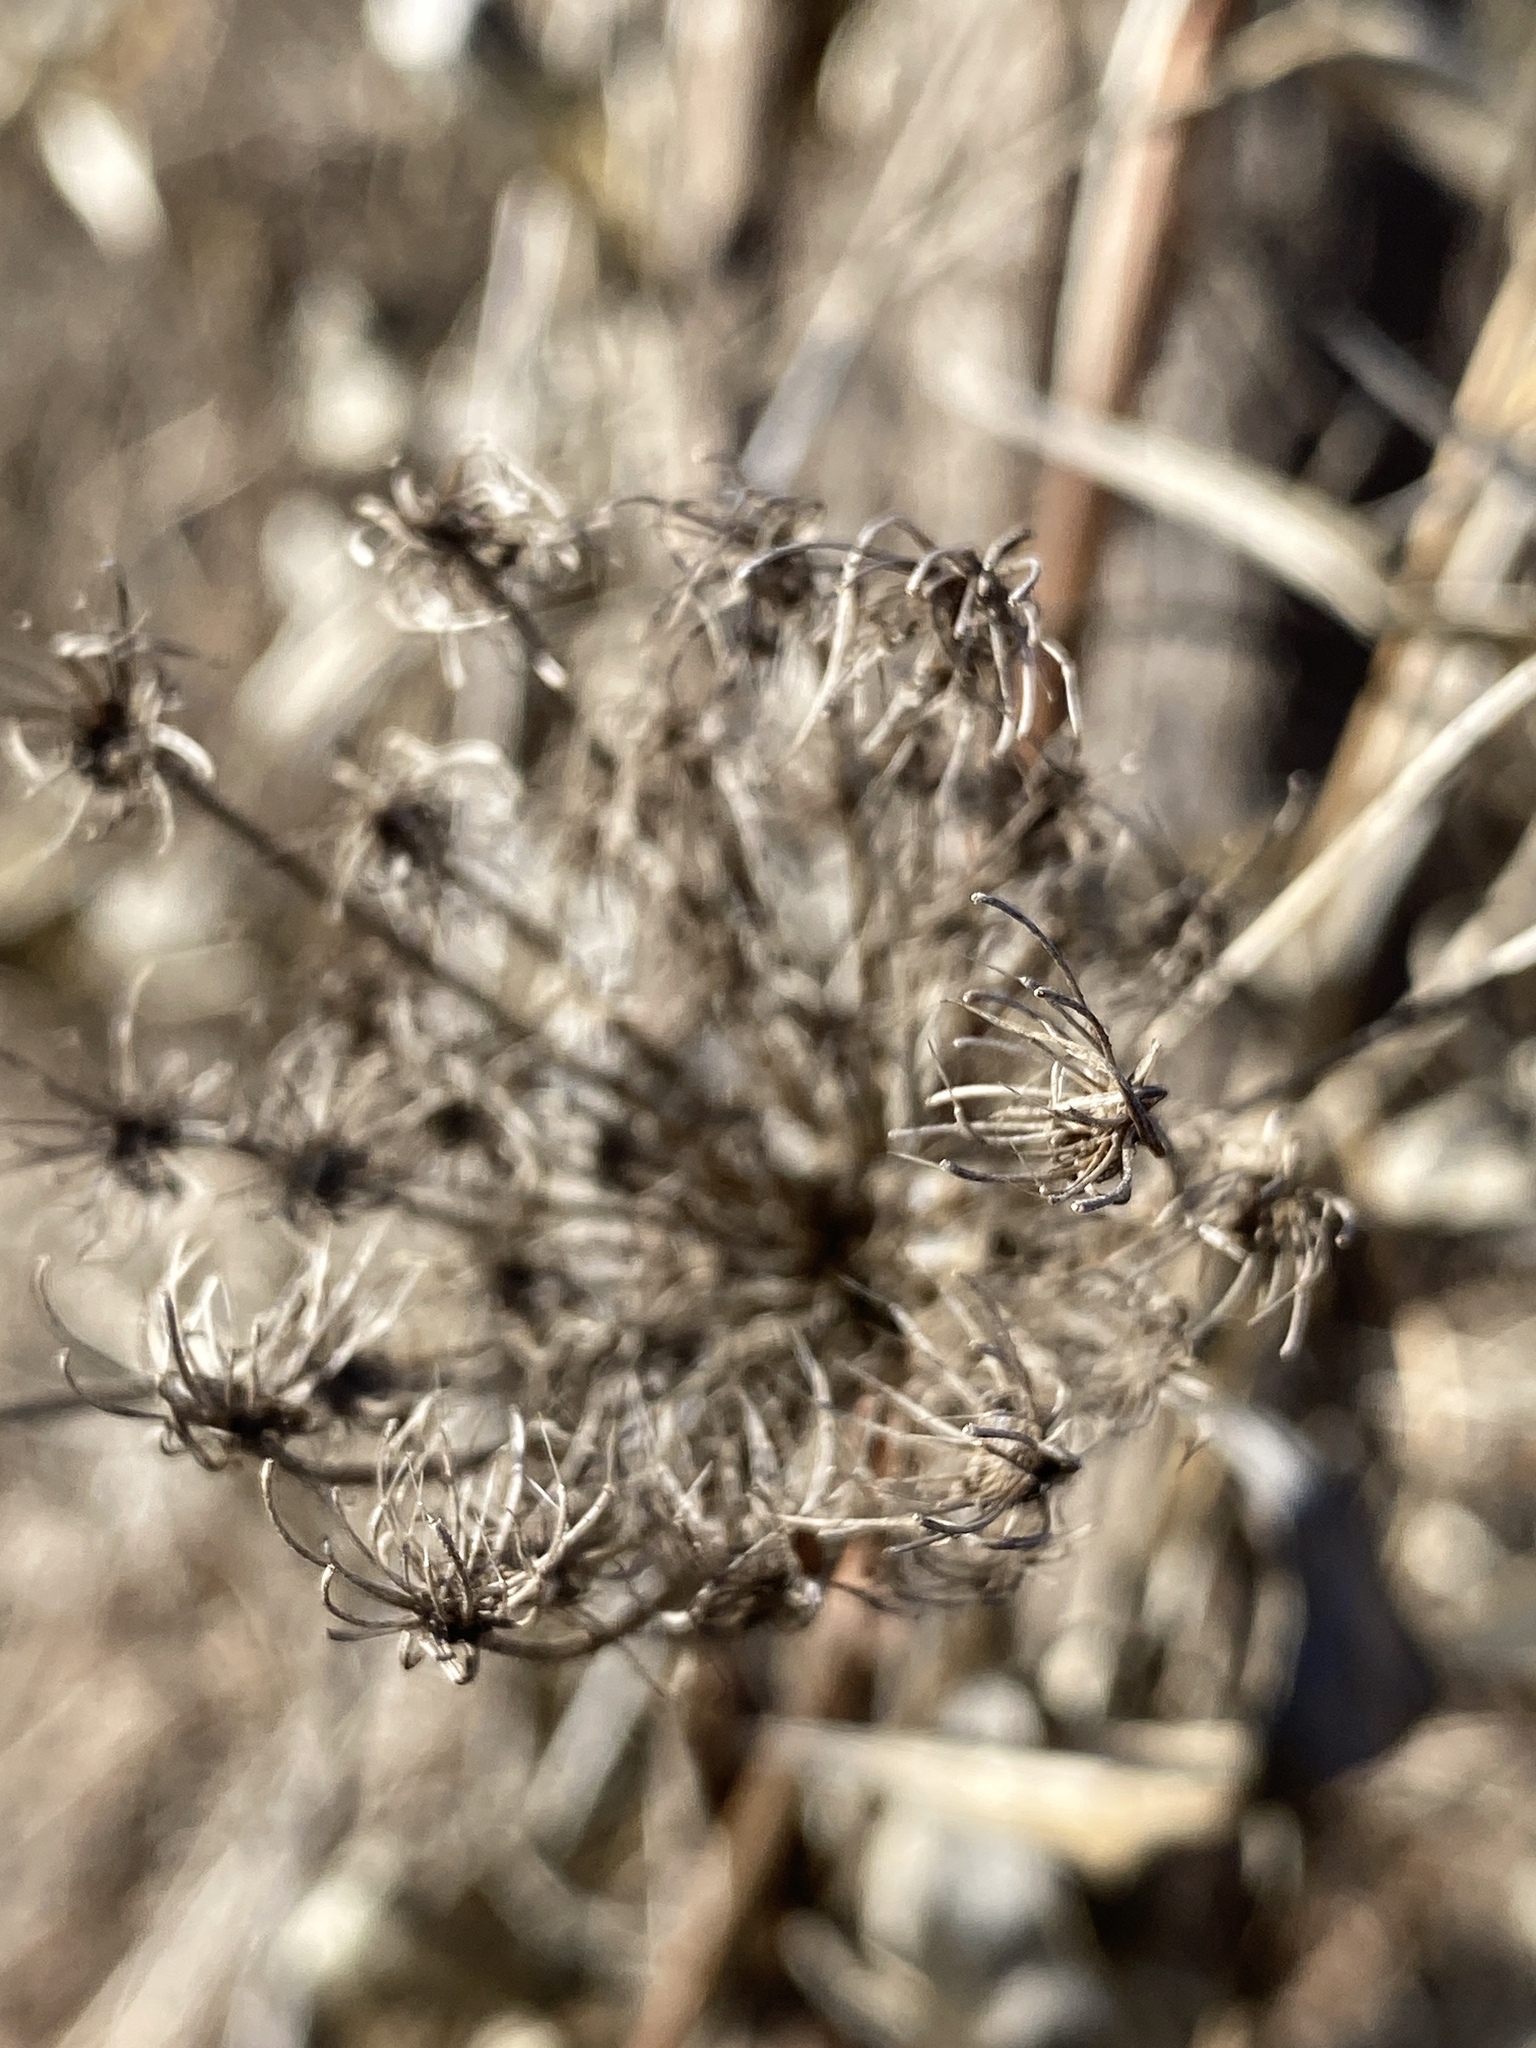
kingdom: Plantae
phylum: Tracheophyta
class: Magnoliopsida
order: Apiales
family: Apiaceae
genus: Daucus
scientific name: Daucus carota
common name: Wild carrot
